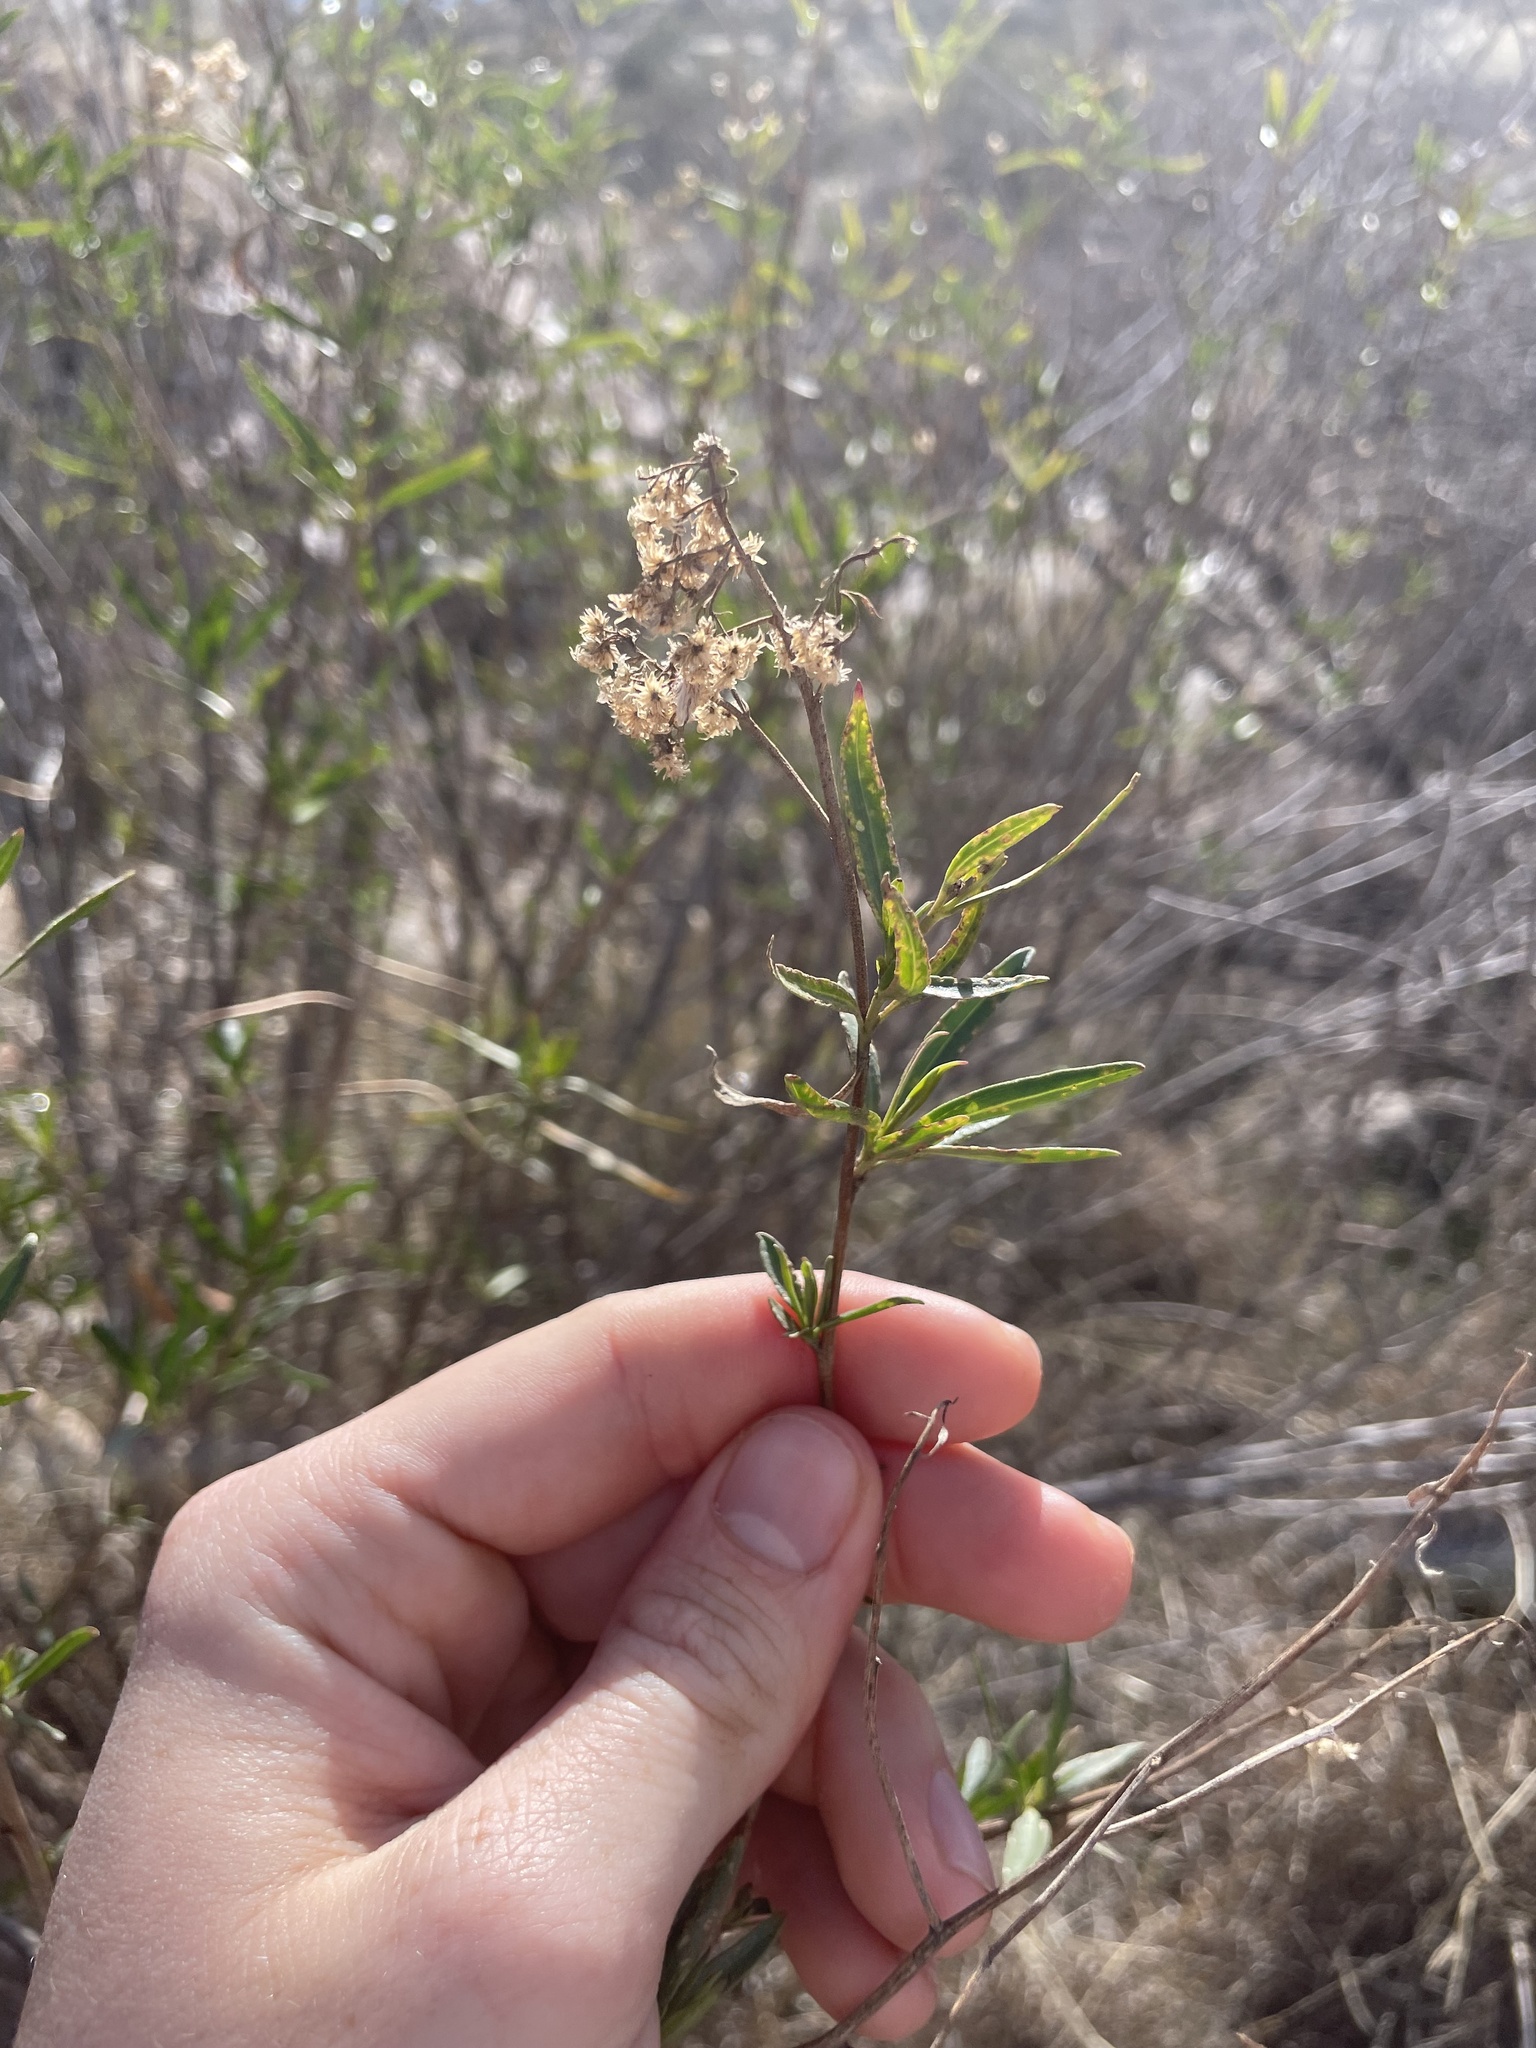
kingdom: Plantae
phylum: Tracheophyta
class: Magnoliopsida
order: Asterales
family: Asteraceae
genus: Baccharis
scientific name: Baccharis salicifolia
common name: Sticky baccharis
